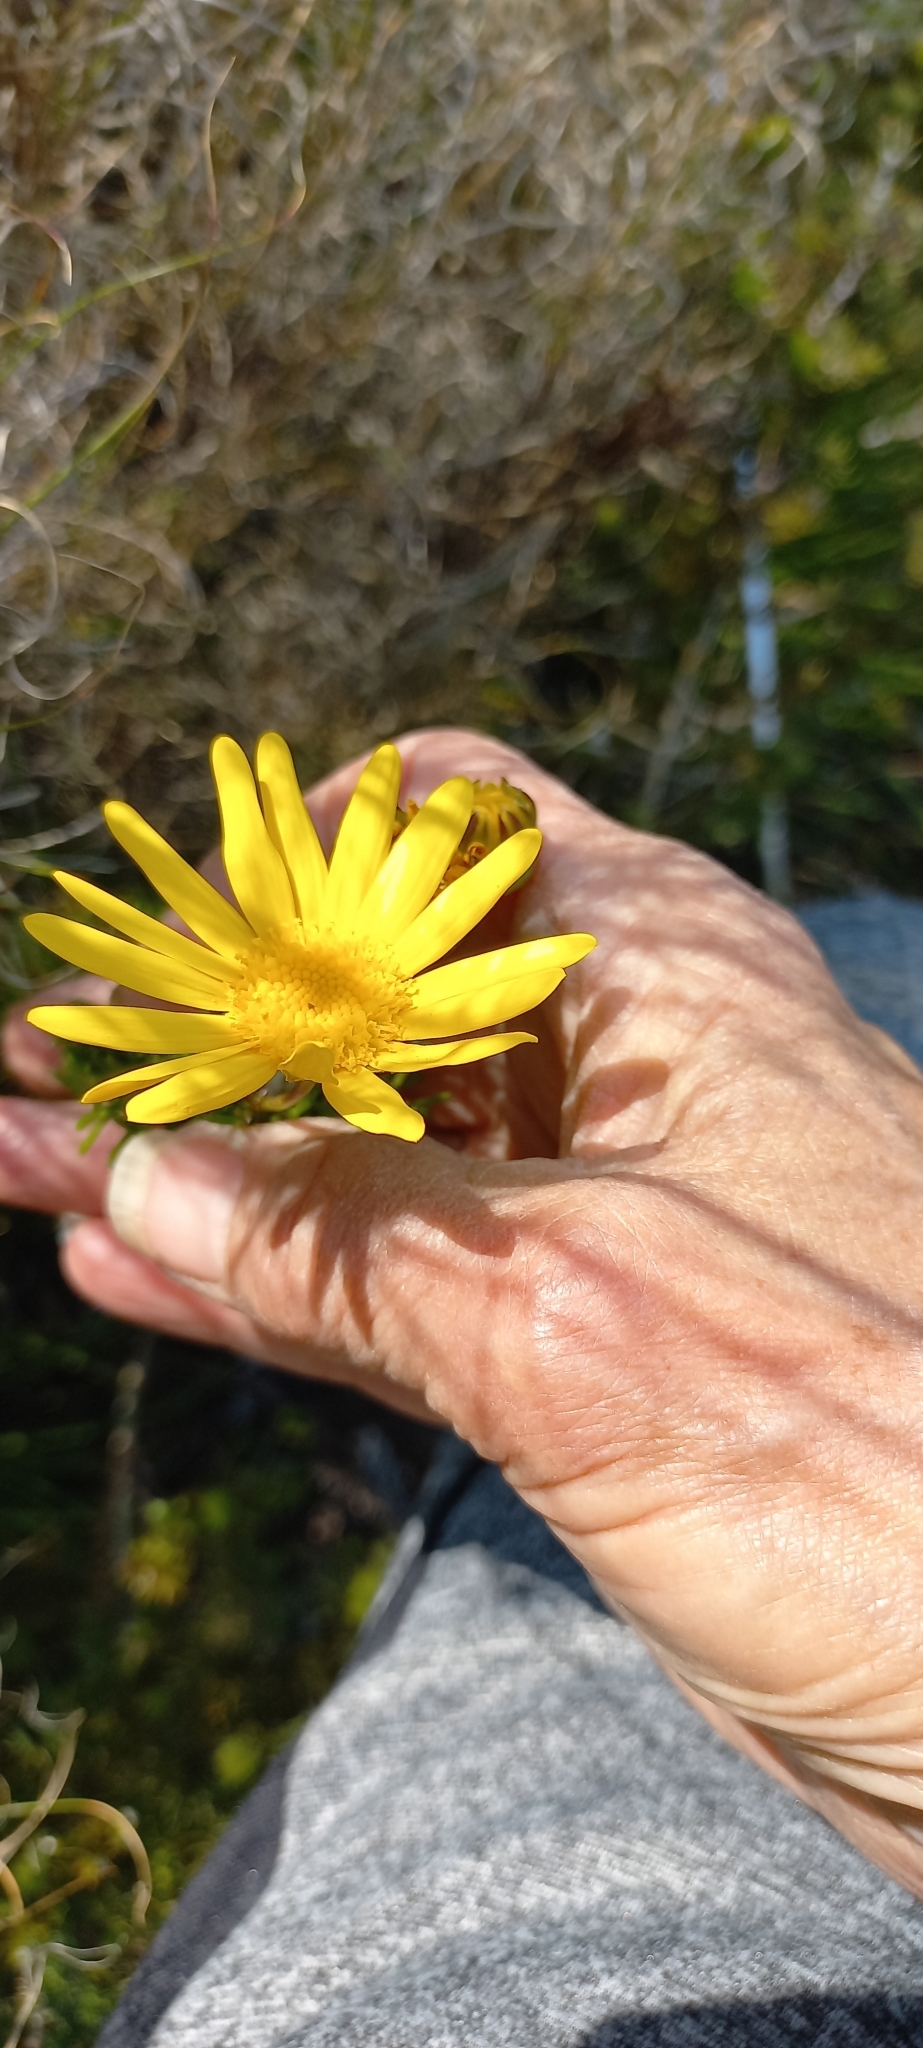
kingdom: Plantae
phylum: Tracheophyta
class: Magnoliopsida
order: Asterales
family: Asteraceae
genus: Euryops
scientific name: Euryops abrotanifolius
